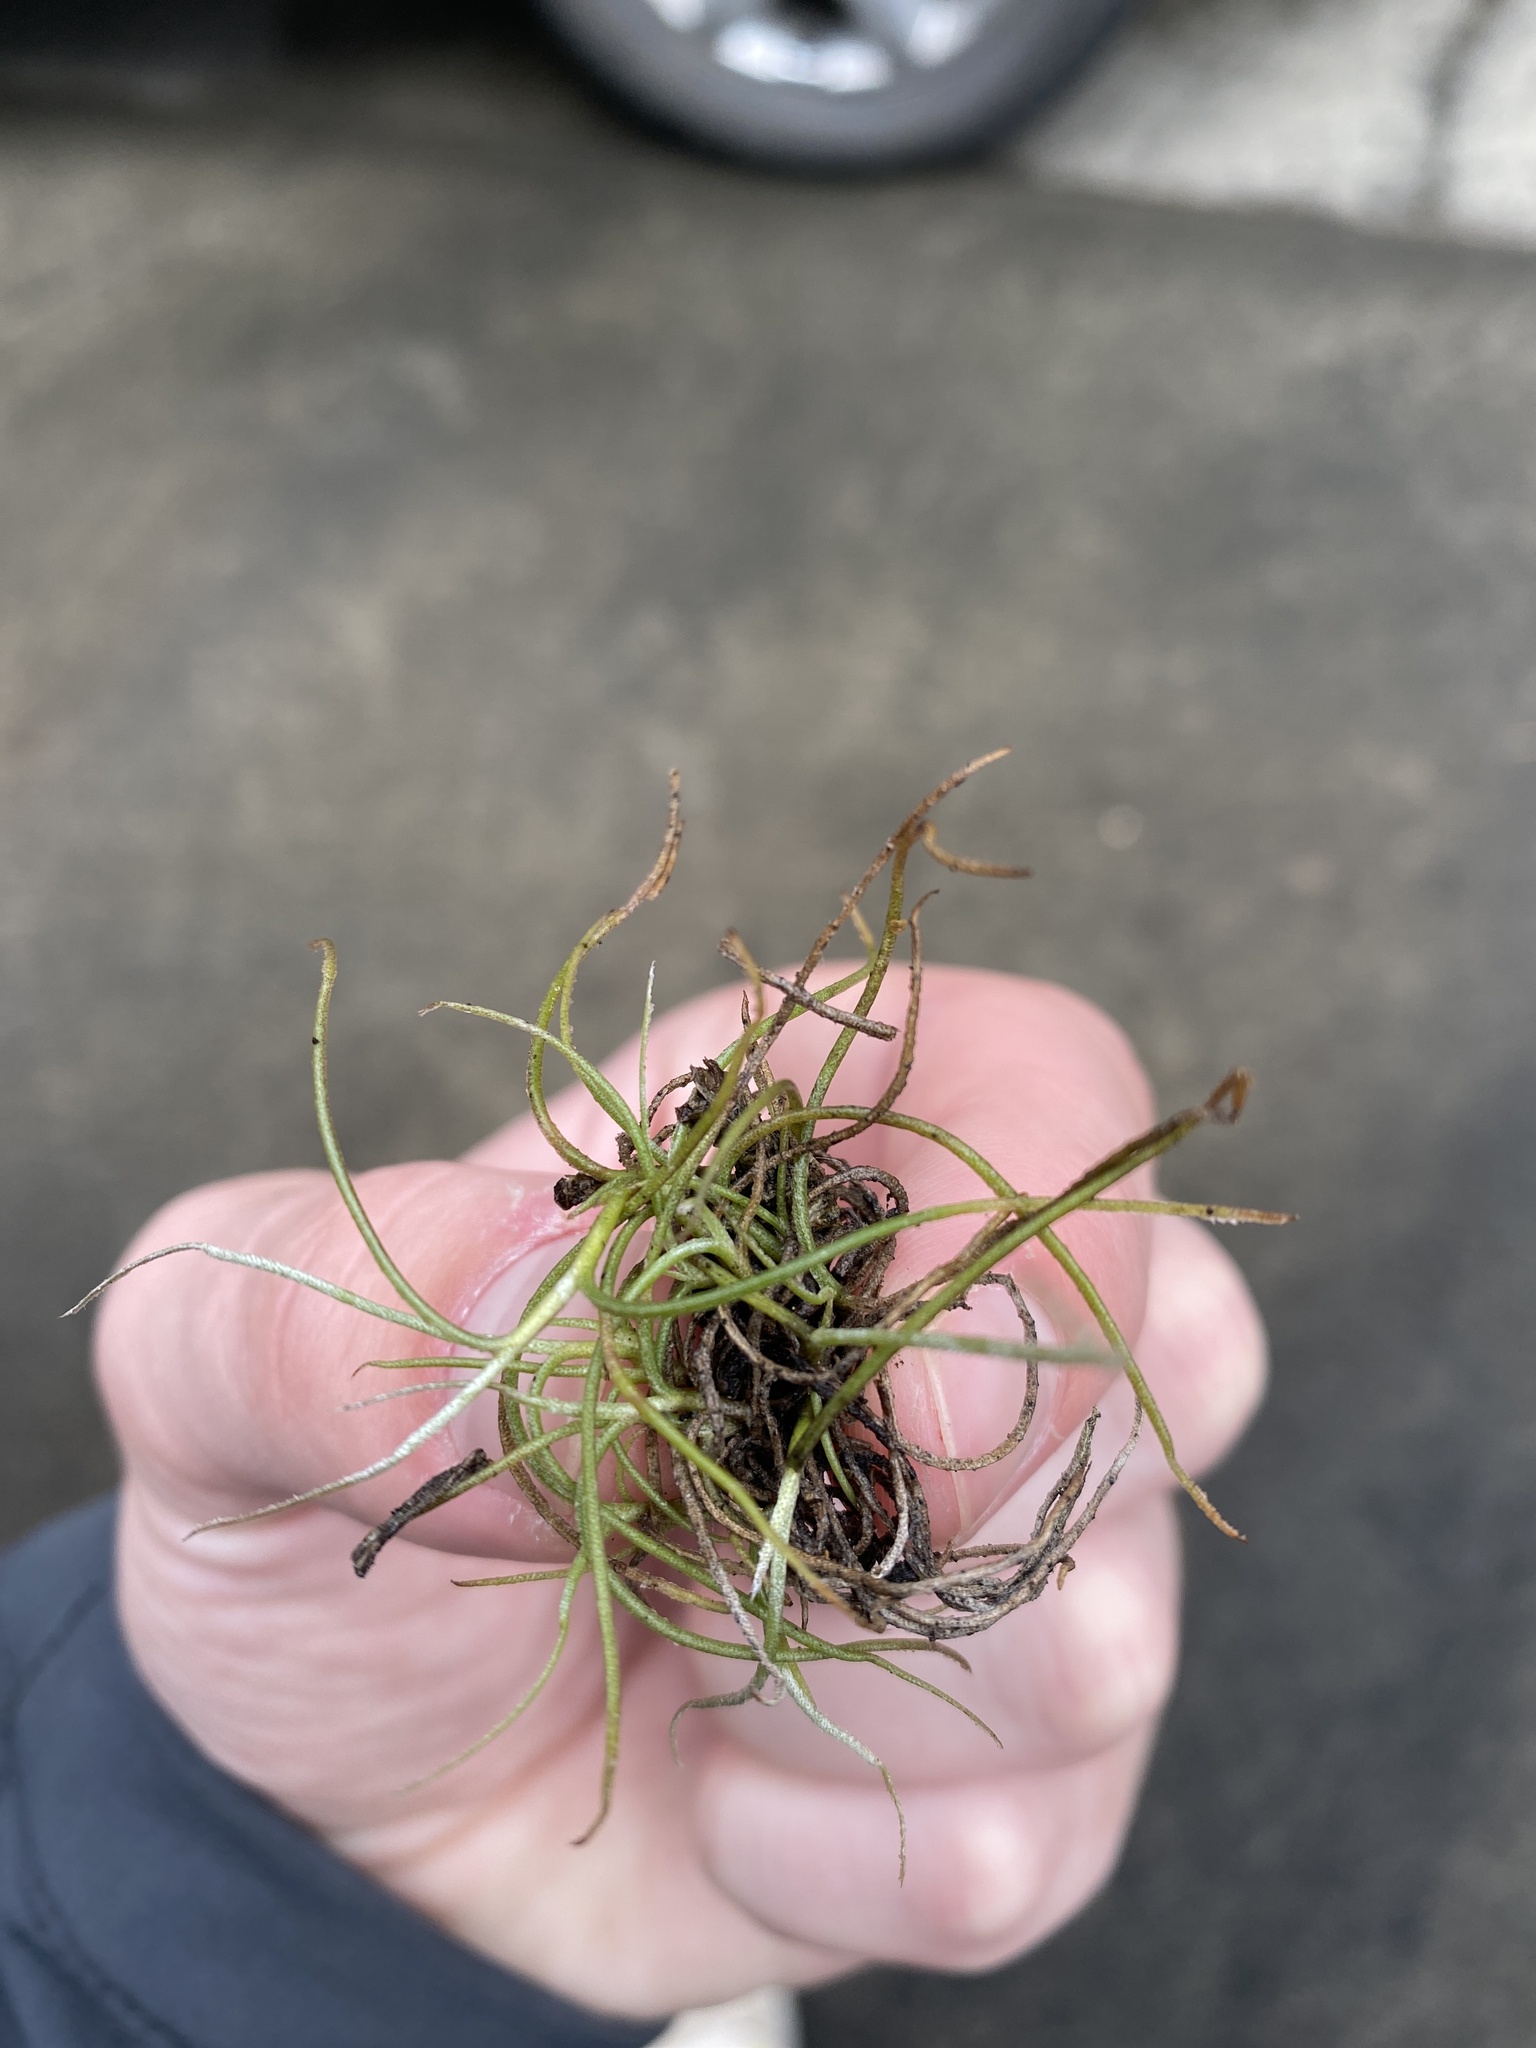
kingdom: Plantae
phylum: Tracheophyta
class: Liliopsida
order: Poales
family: Bromeliaceae
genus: Tillandsia
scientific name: Tillandsia recurvata
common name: Small ballmoss
